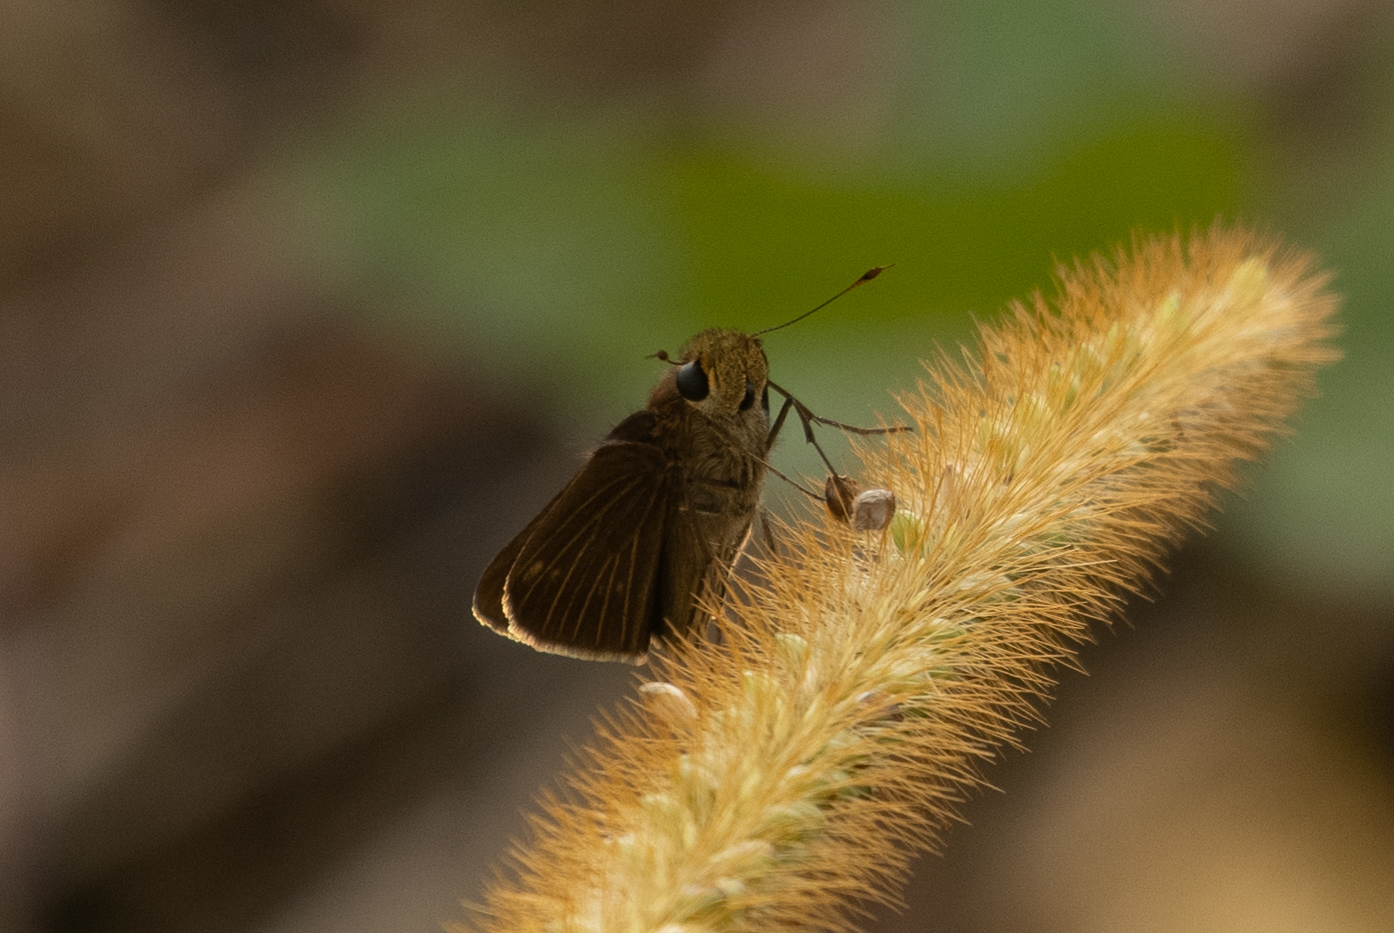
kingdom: Animalia
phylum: Arthropoda
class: Insecta
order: Lepidoptera
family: Hesperiidae
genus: Panoquina
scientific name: Panoquina ocola
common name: Ocola skipper
